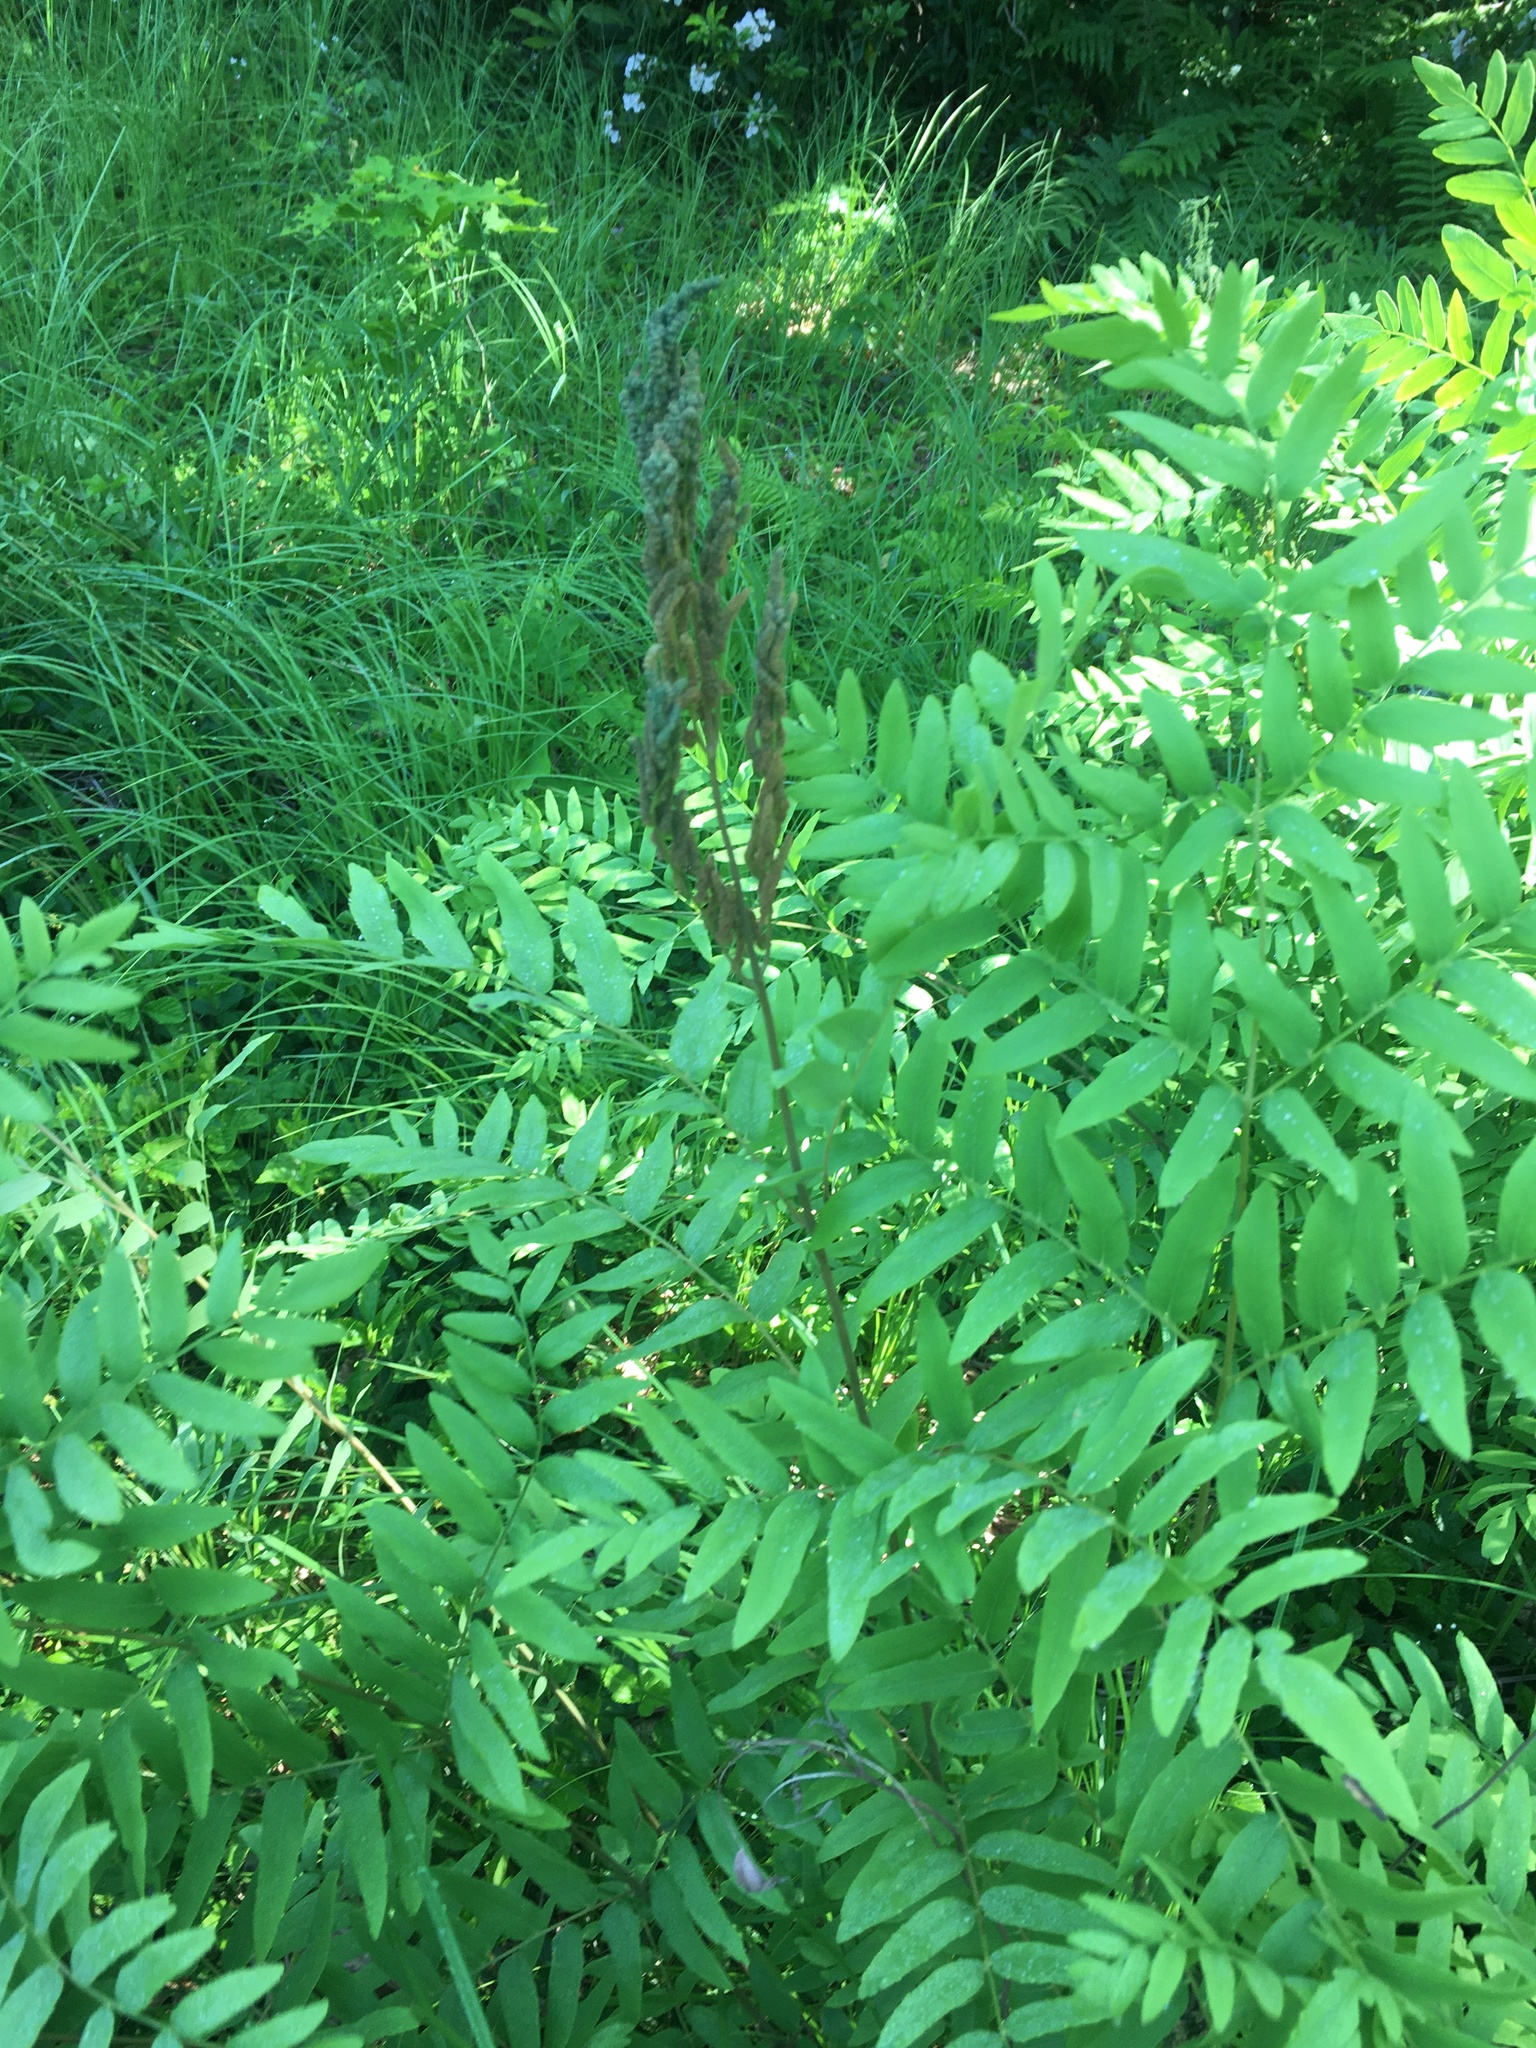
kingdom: Plantae
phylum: Tracheophyta
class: Polypodiopsida
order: Osmundales
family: Osmundaceae
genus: Osmunda
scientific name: Osmunda spectabilis
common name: American royal fern
